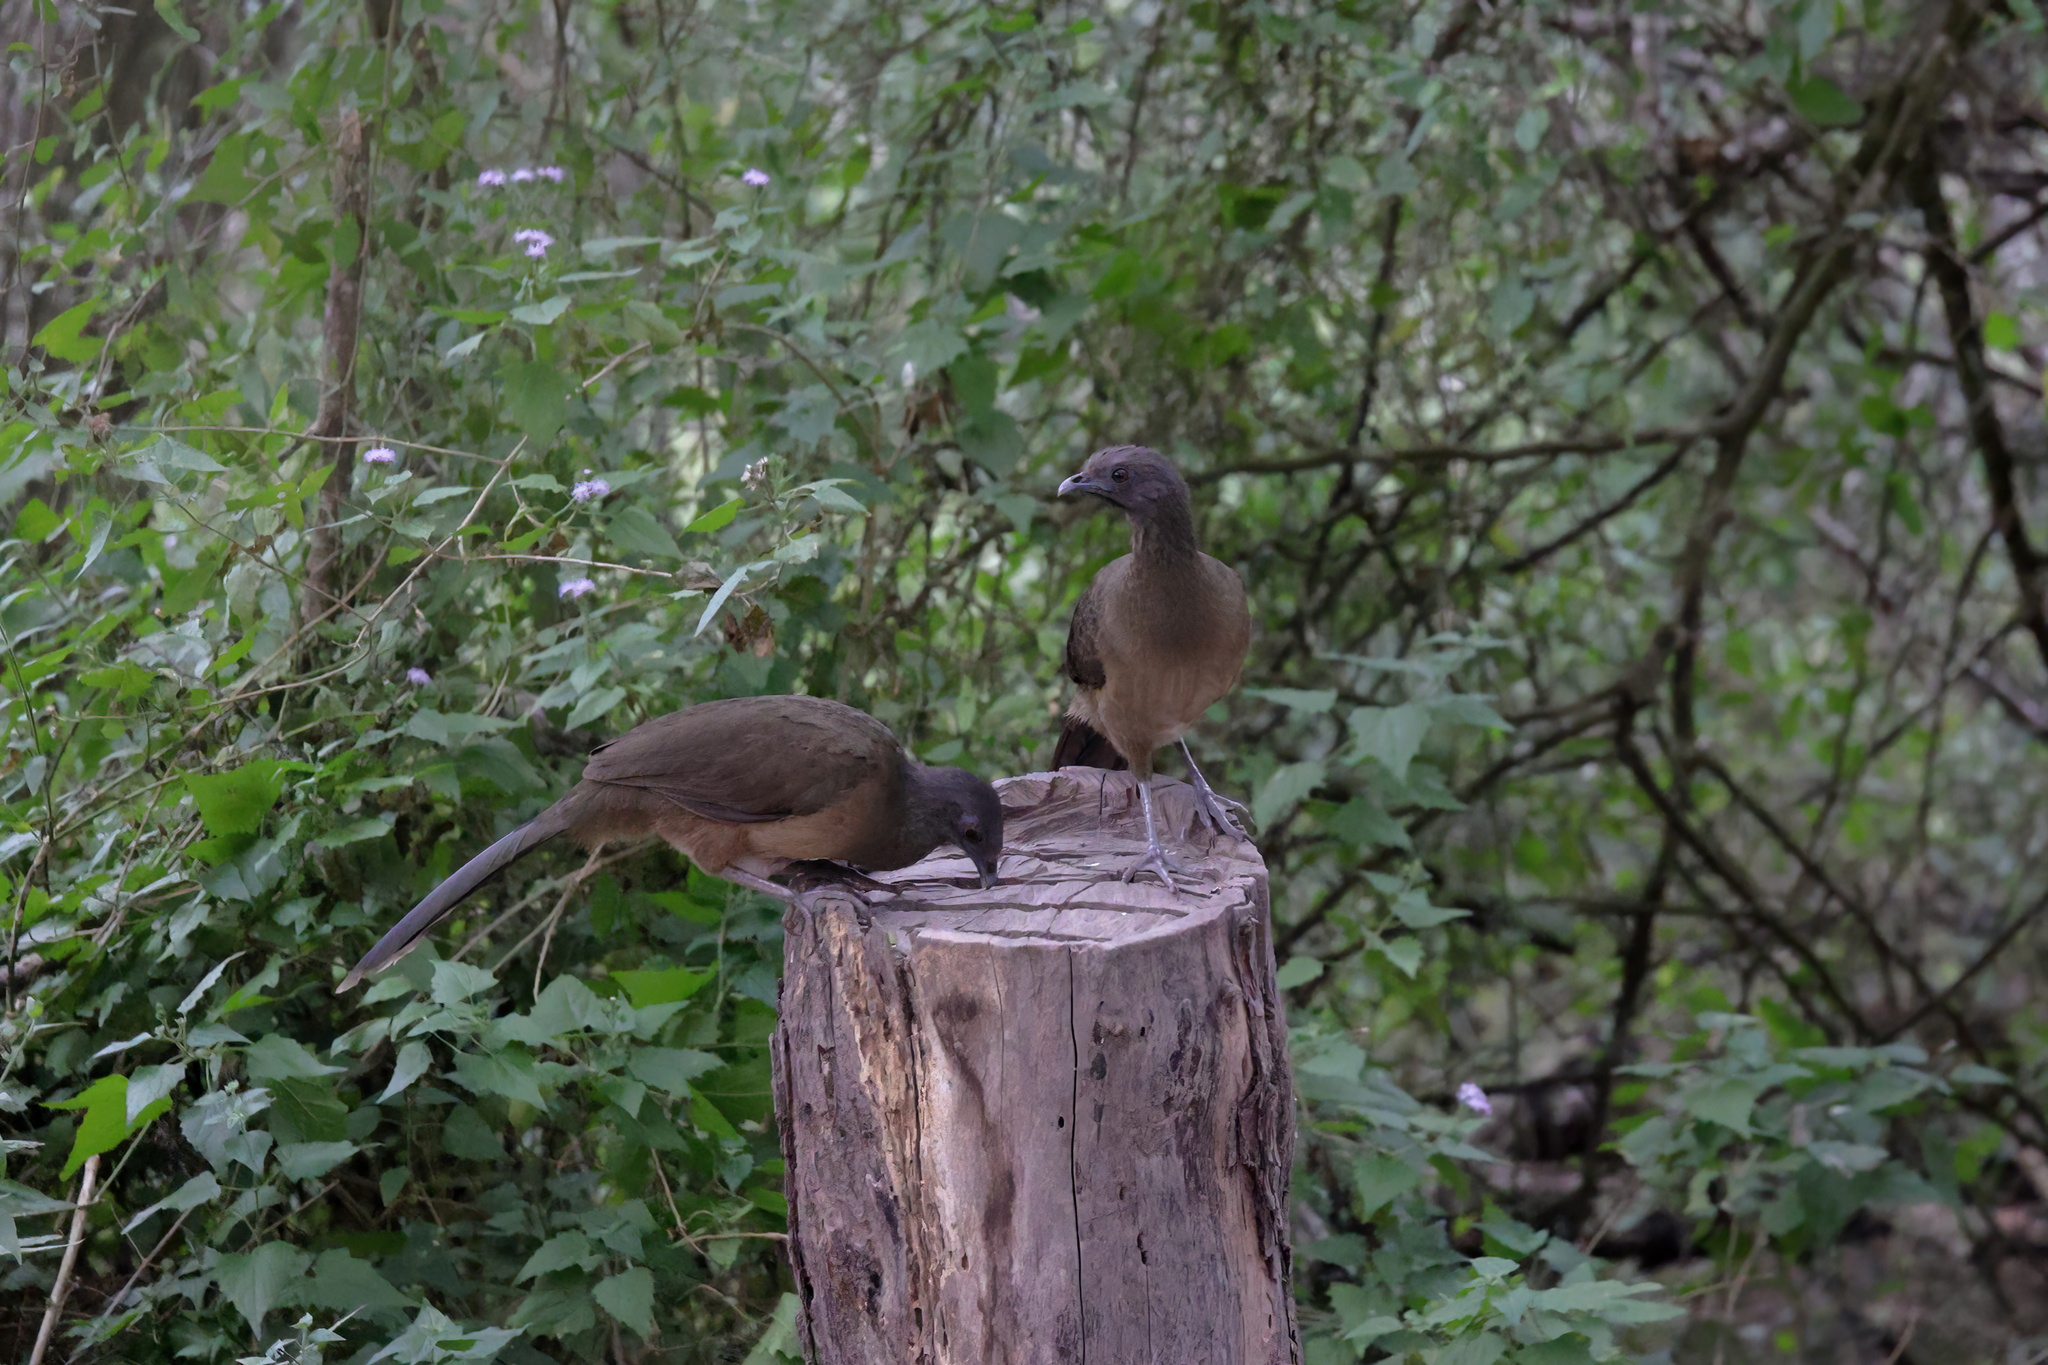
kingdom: Animalia
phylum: Chordata
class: Aves
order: Galliformes
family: Cracidae
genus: Ortalis
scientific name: Ortalis vetula
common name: Plain chachalaca
